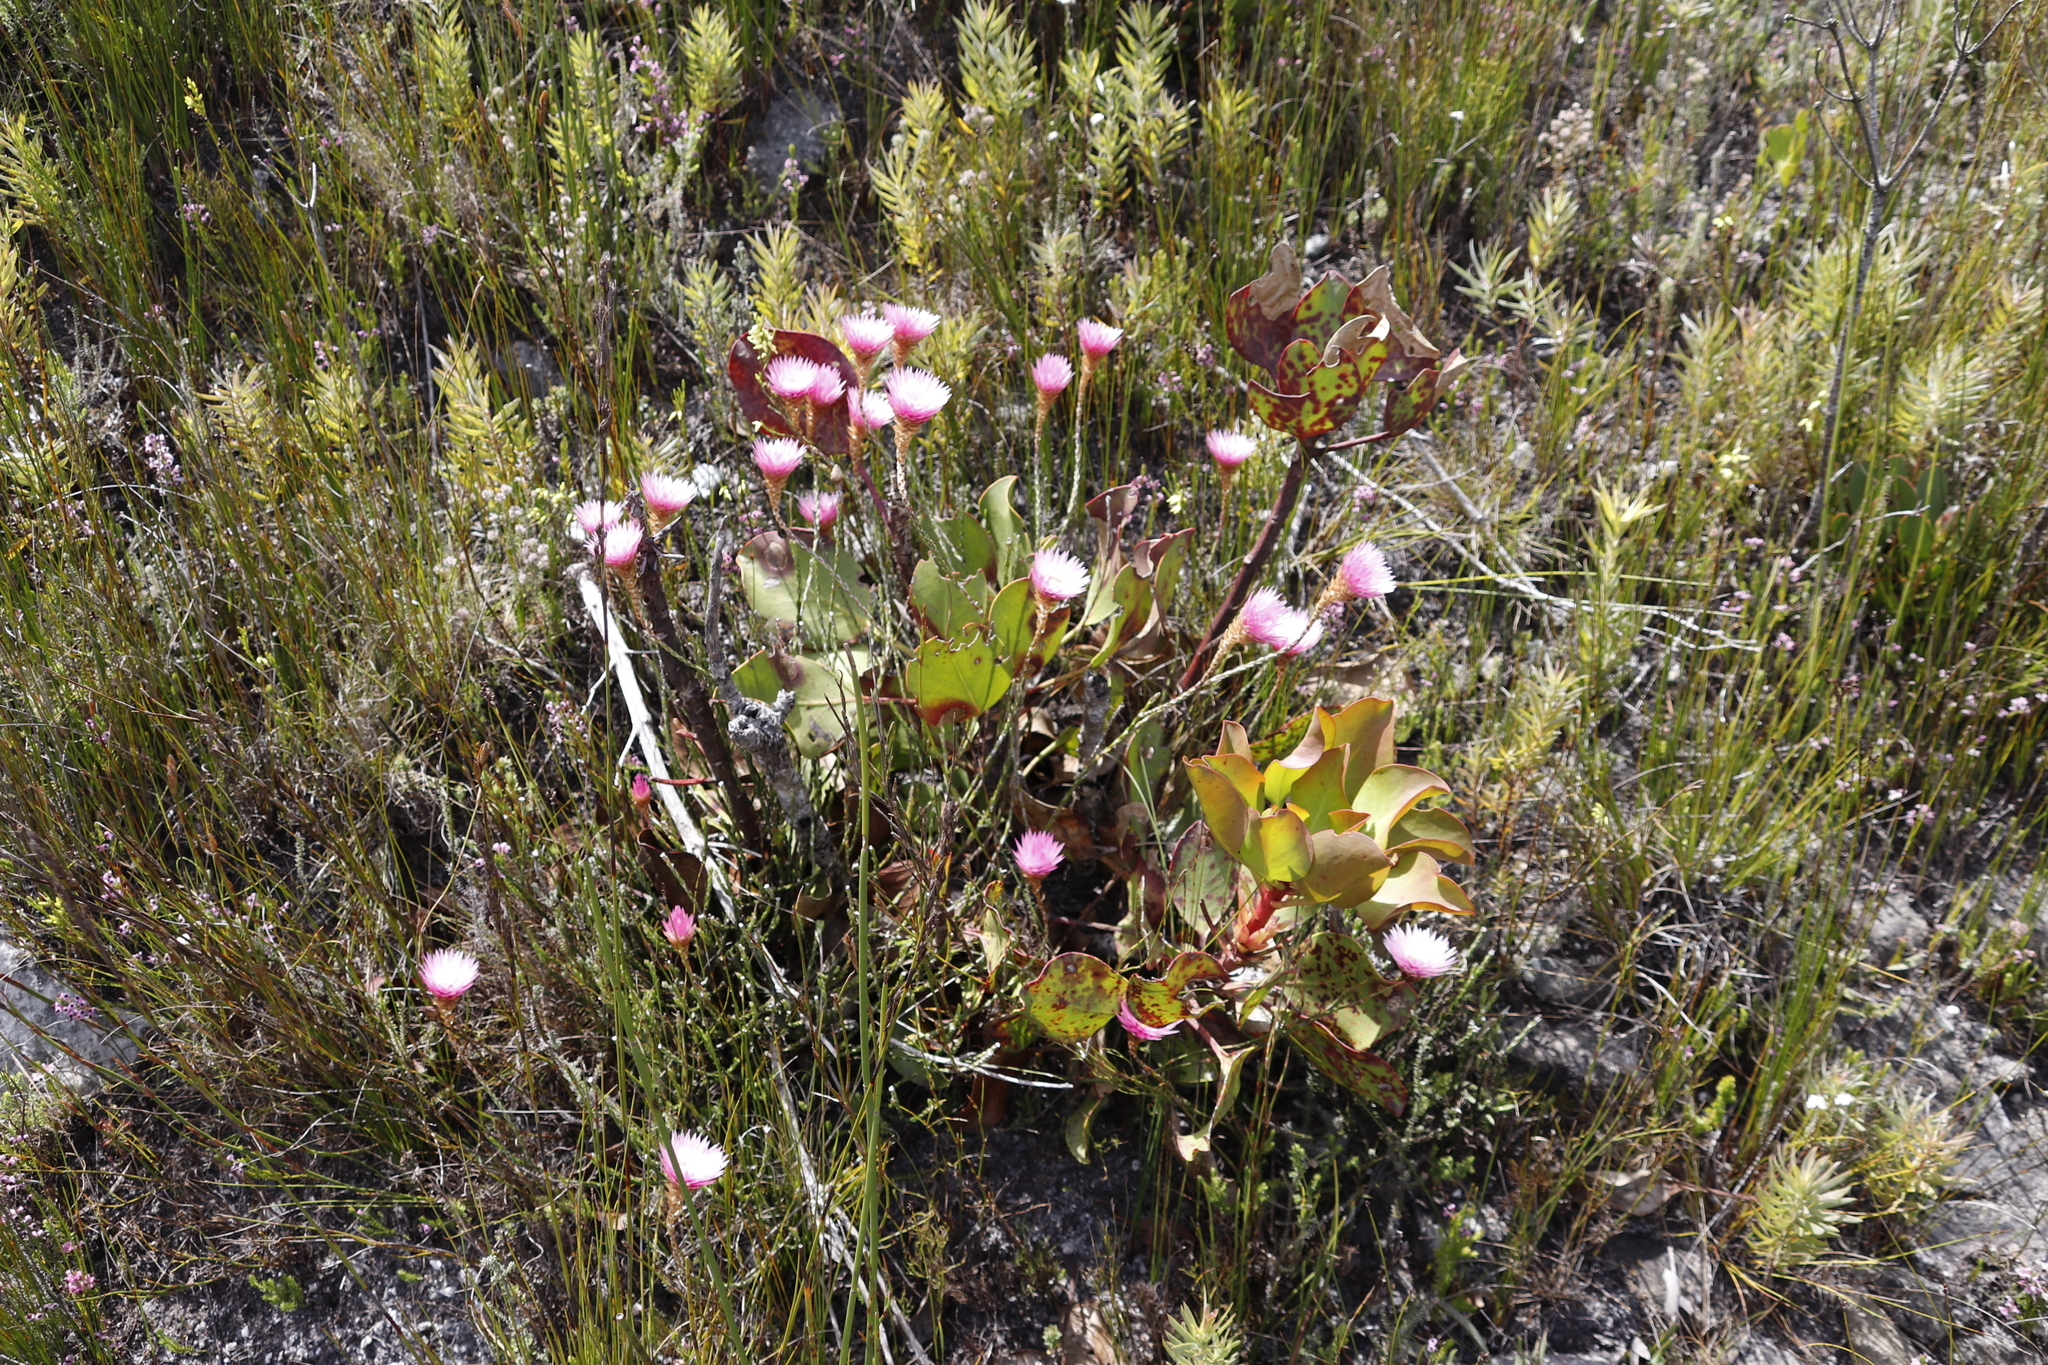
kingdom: Plantae
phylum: Tracheophyta
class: Magnoliopsida
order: Asterales
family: Asteraceae
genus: Edmondia
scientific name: Edmondia pinifolia
